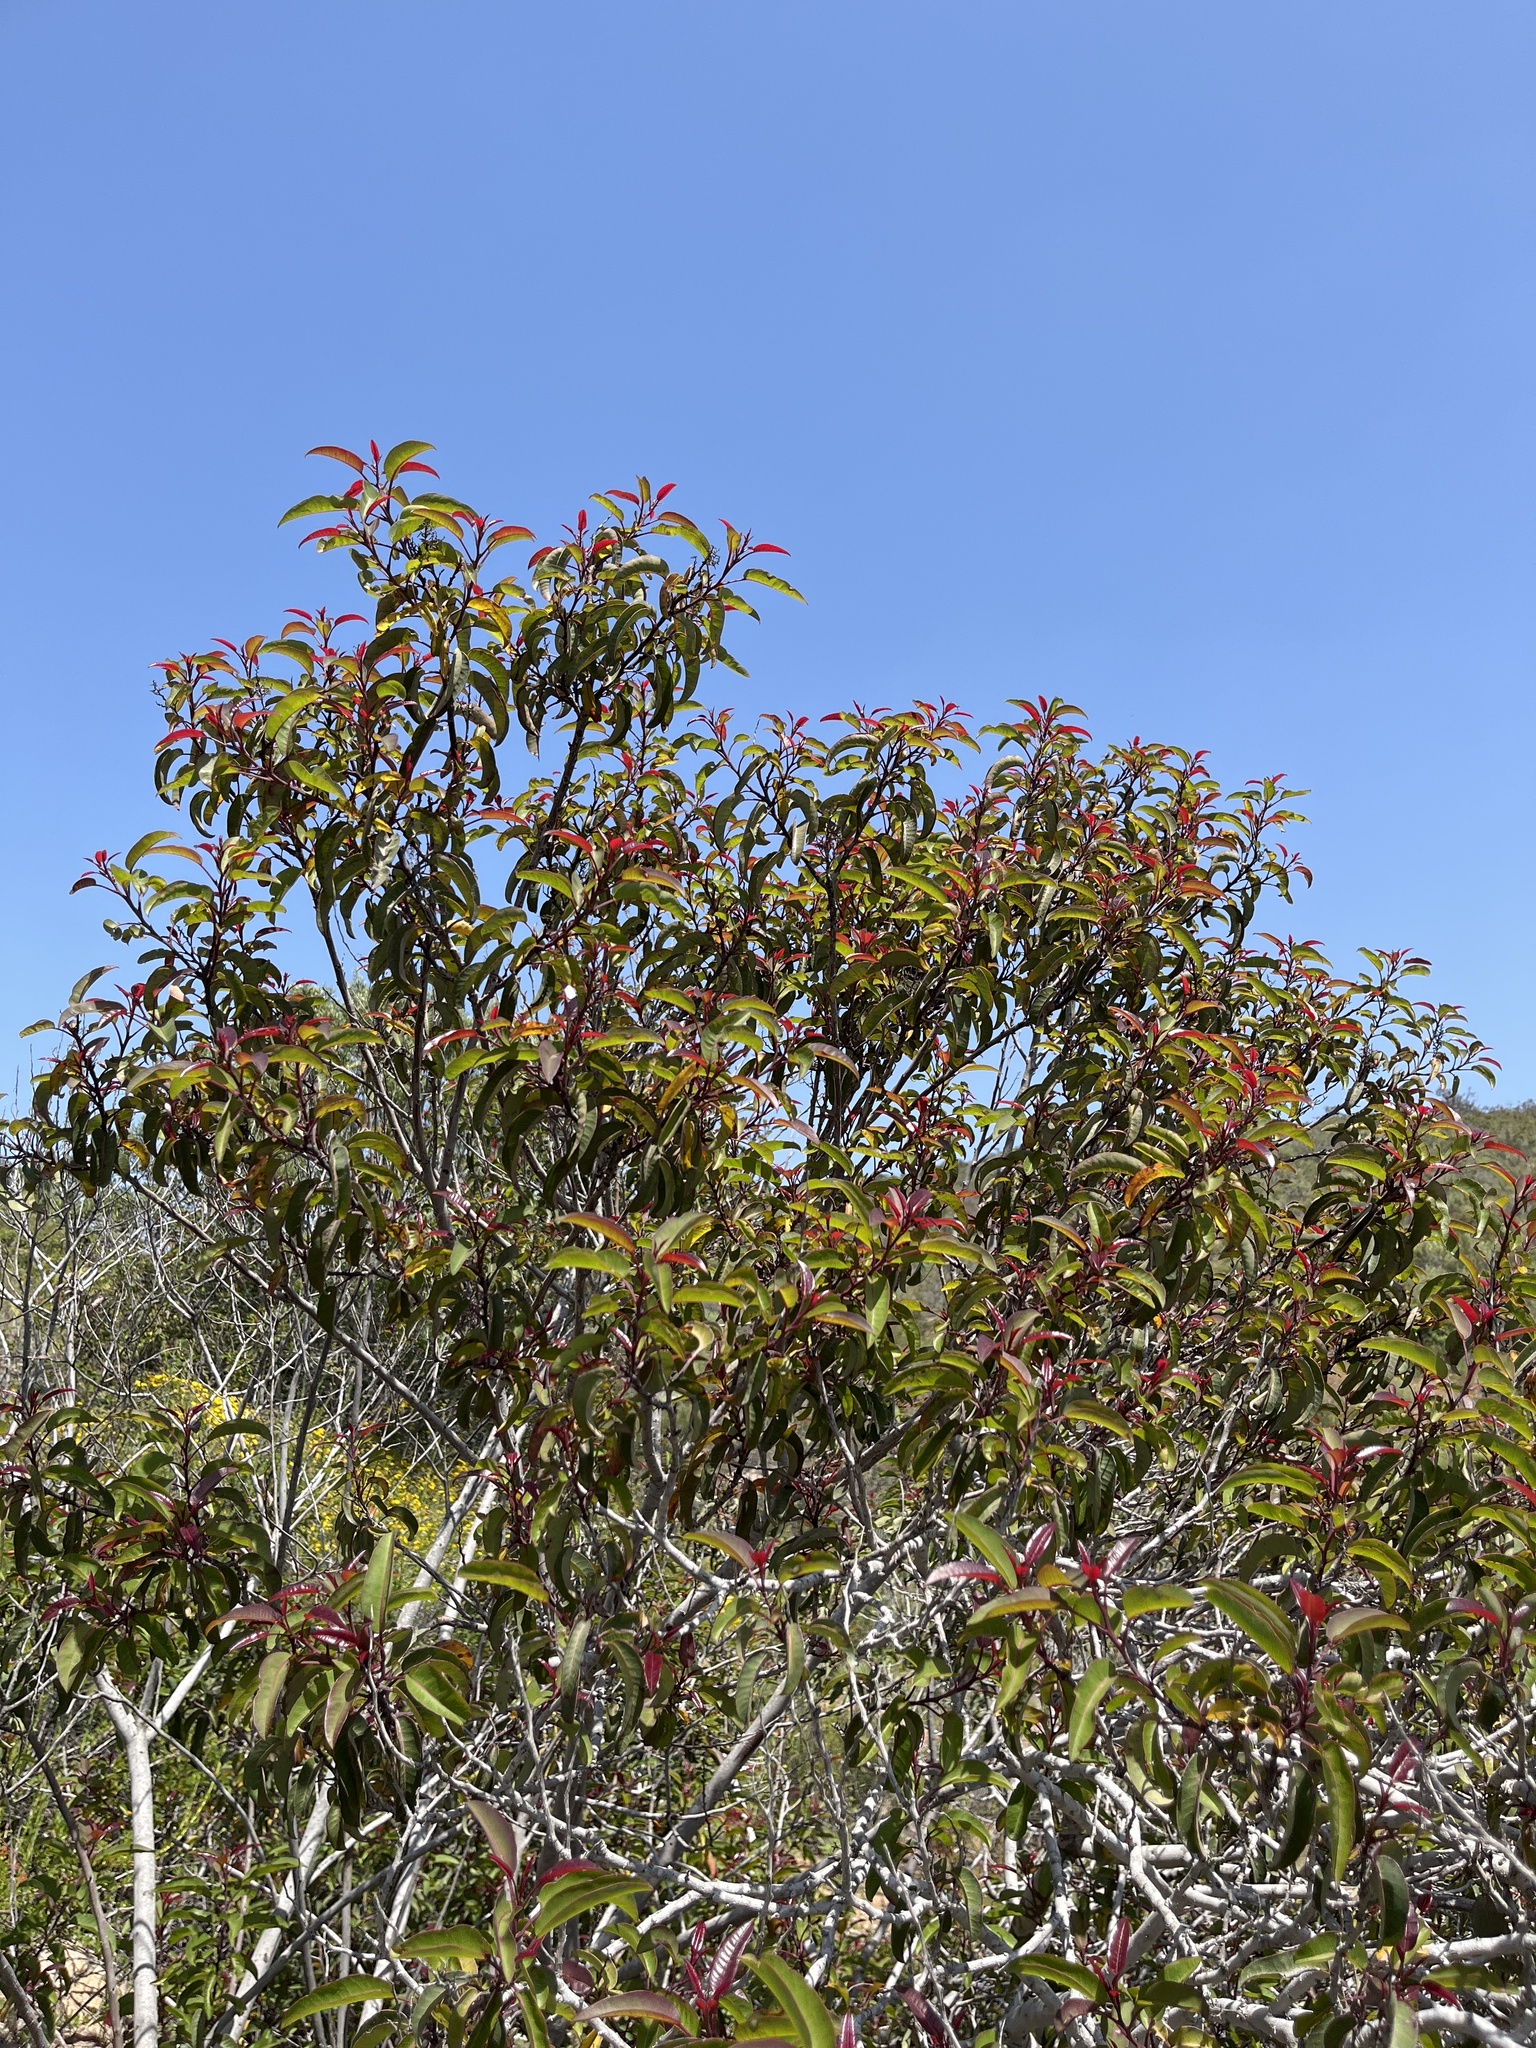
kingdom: Plantae
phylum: Tracheophyta
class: Magnoliopsida
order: Sapindales
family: Anacardiaceae
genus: Malosma
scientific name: Malosma laurina
